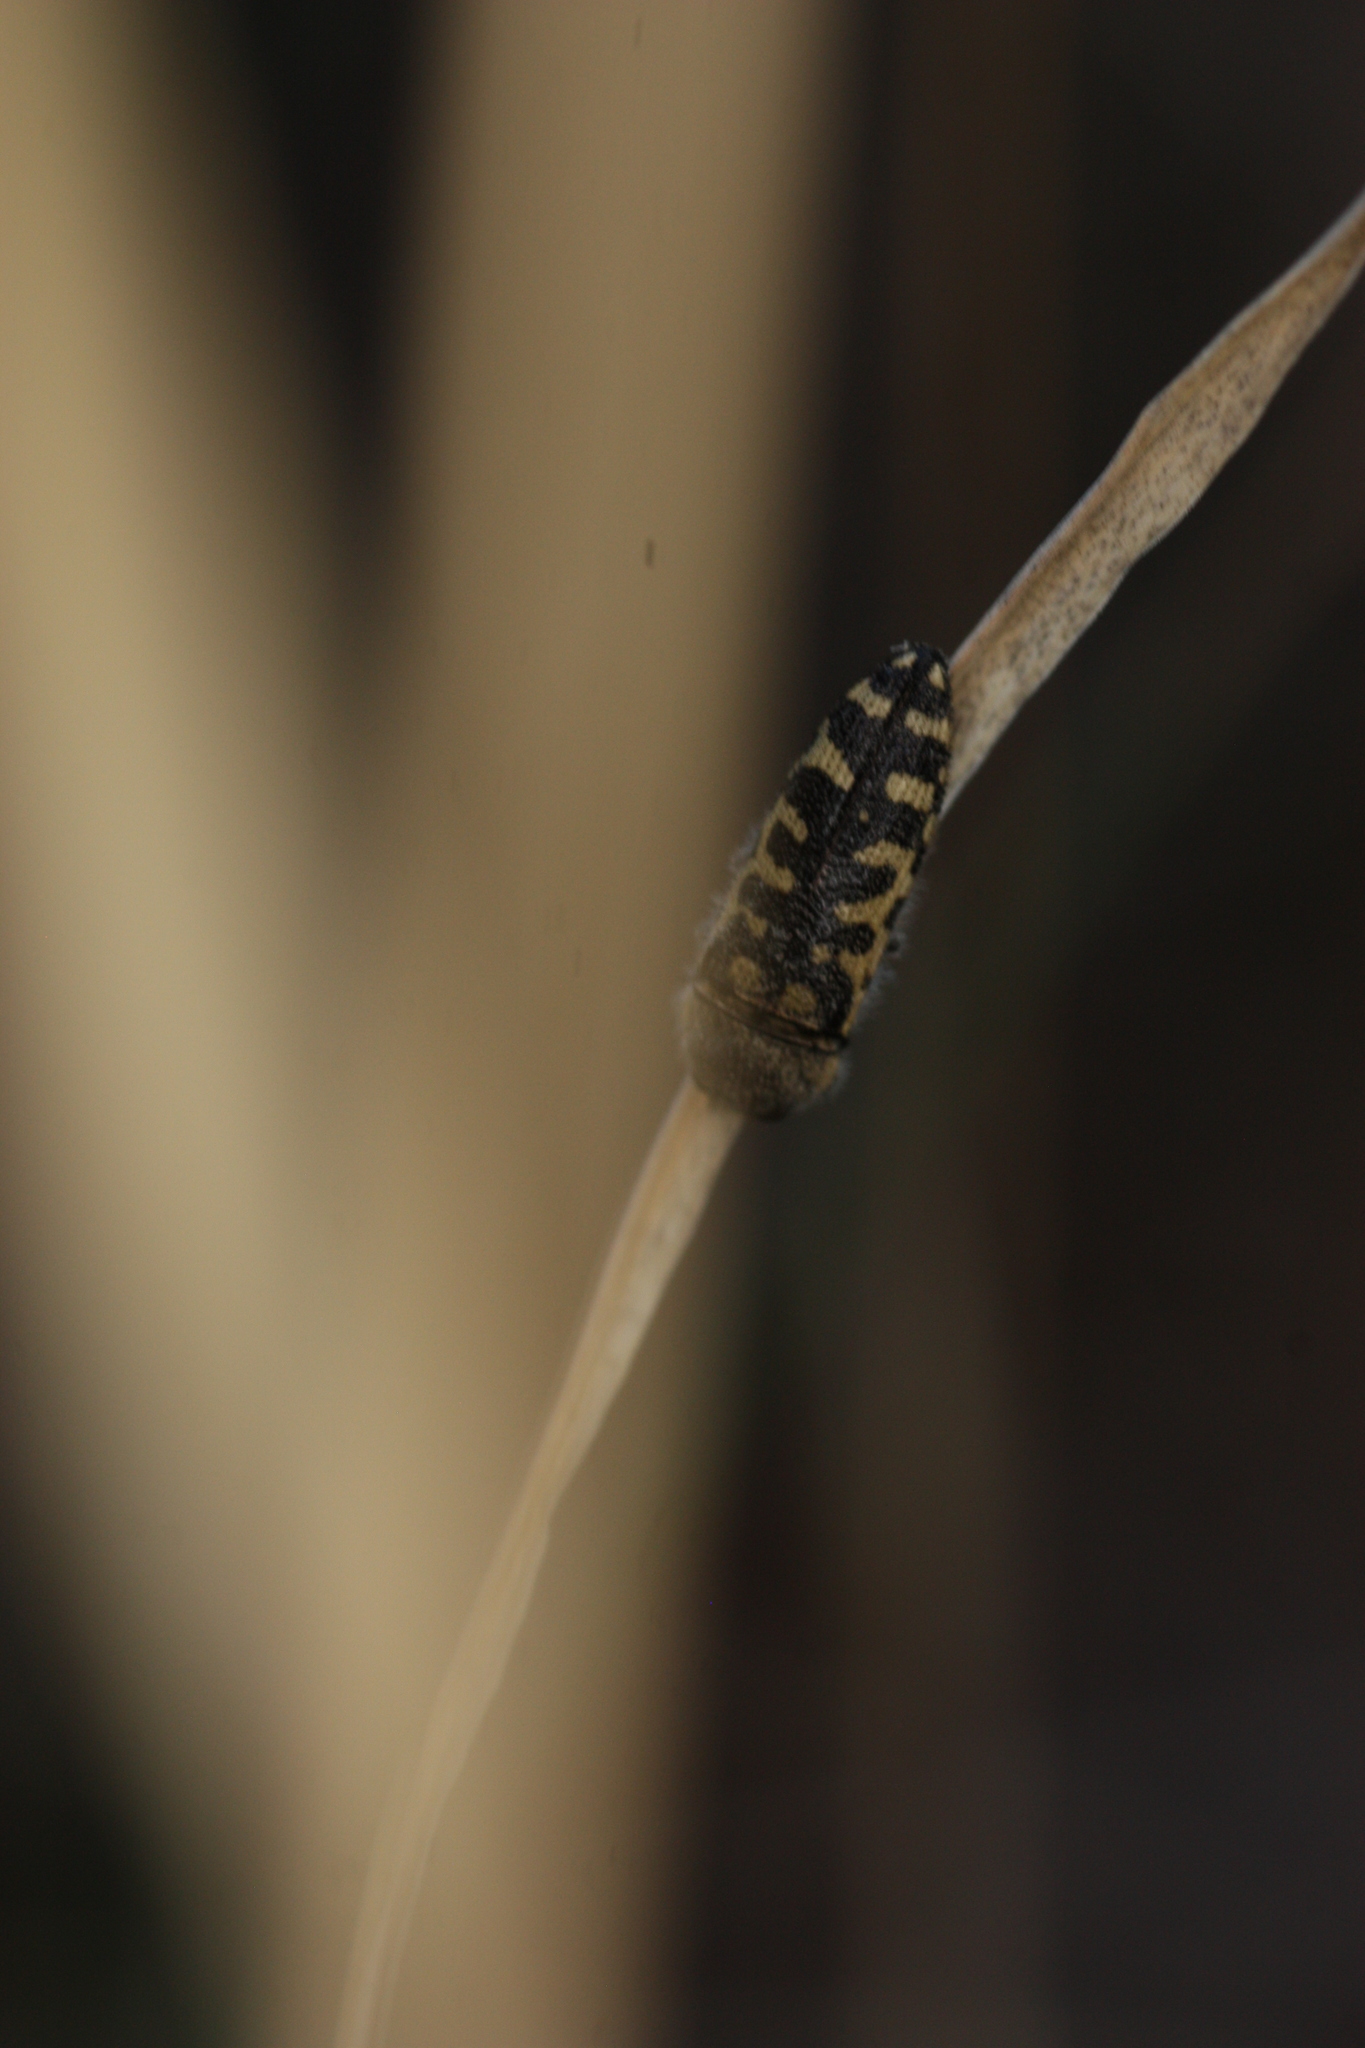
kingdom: Animalia
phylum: Arthropoda
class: Insecta
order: Coleoptera
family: Buprestidae
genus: Acmaeodera
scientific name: Acmaeodera solitaria
